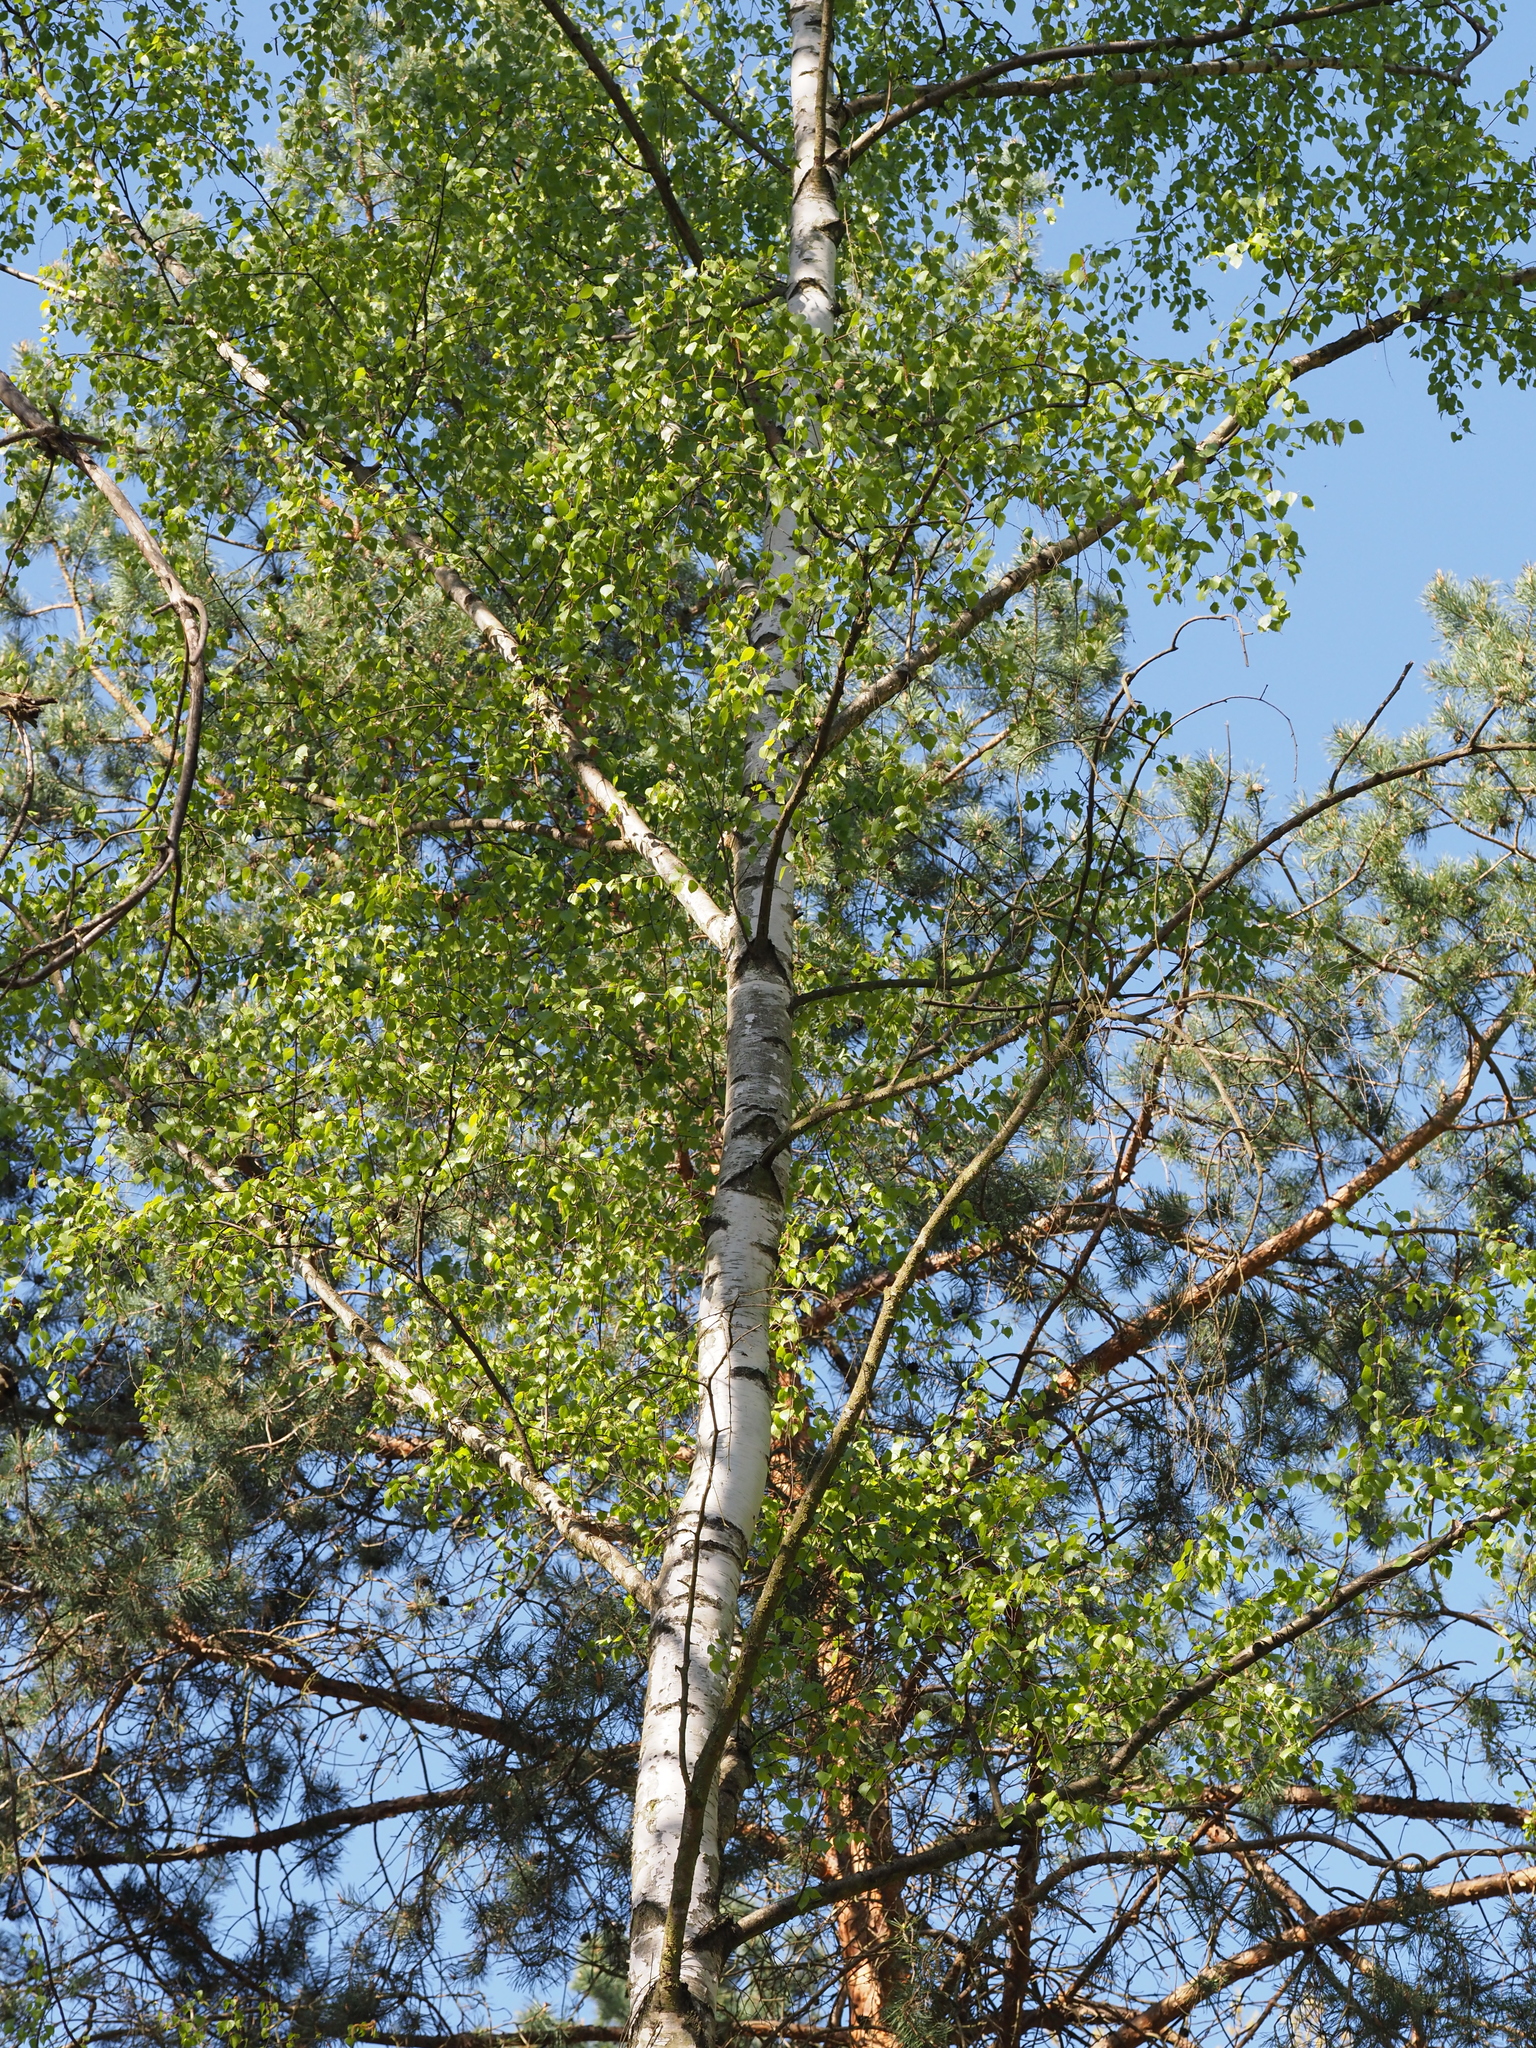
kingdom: Plantae
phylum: Tracheophyta
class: Magnoliopsida
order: Fagales
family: Betulaceae
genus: Betula
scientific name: Betula pendula
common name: Silver birch
